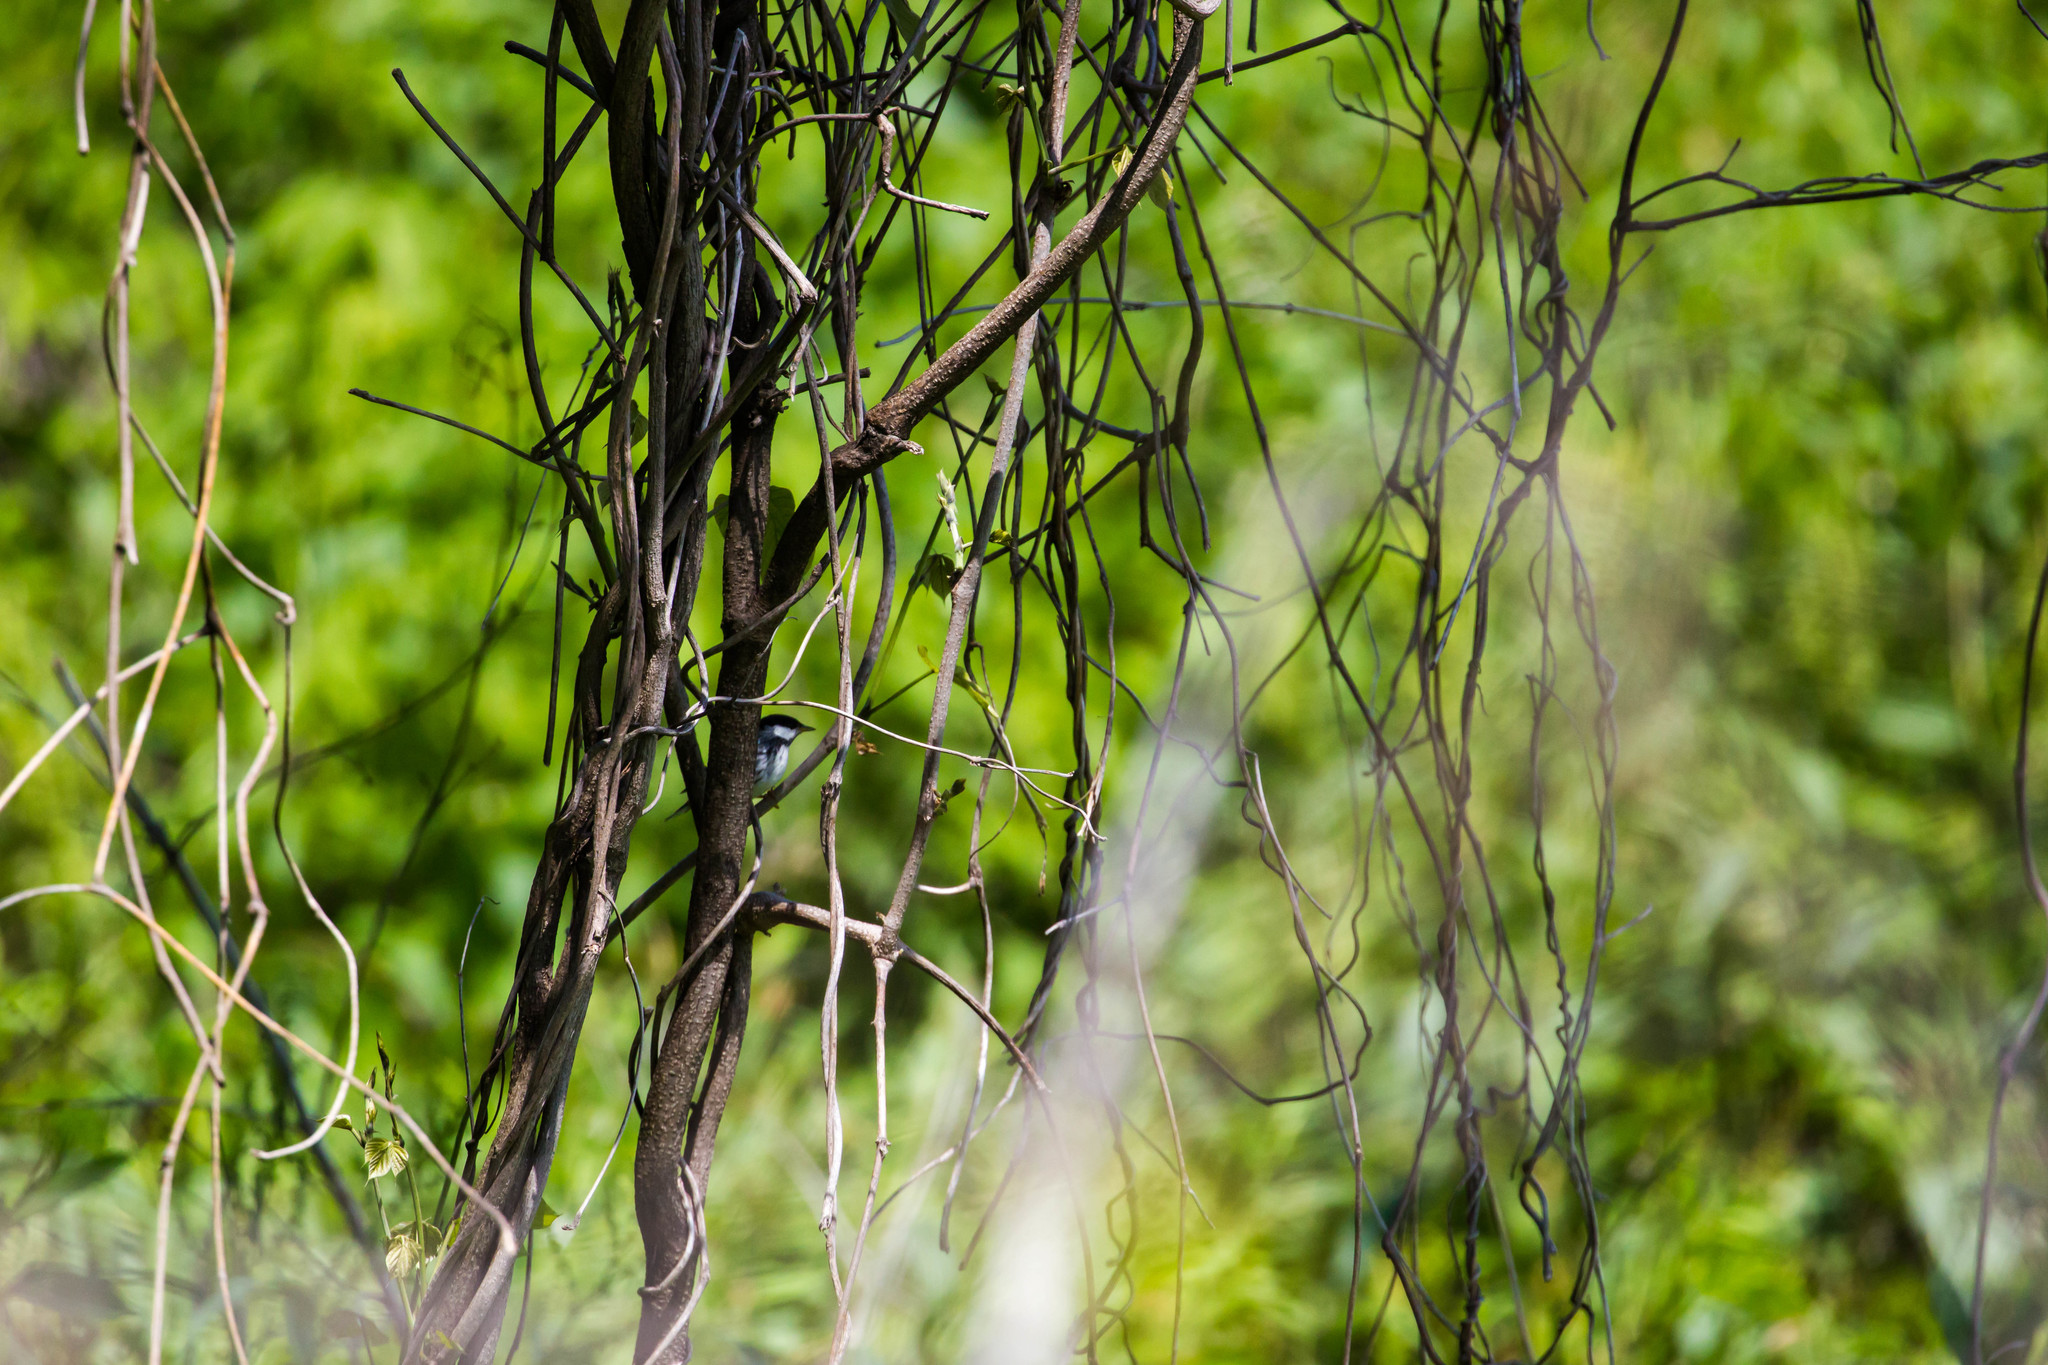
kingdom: Animalia
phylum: Chordata
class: Aves
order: Passeriformes
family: Parulidae
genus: Setophaga
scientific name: Setophaga striata
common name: Blackpoll warbler
